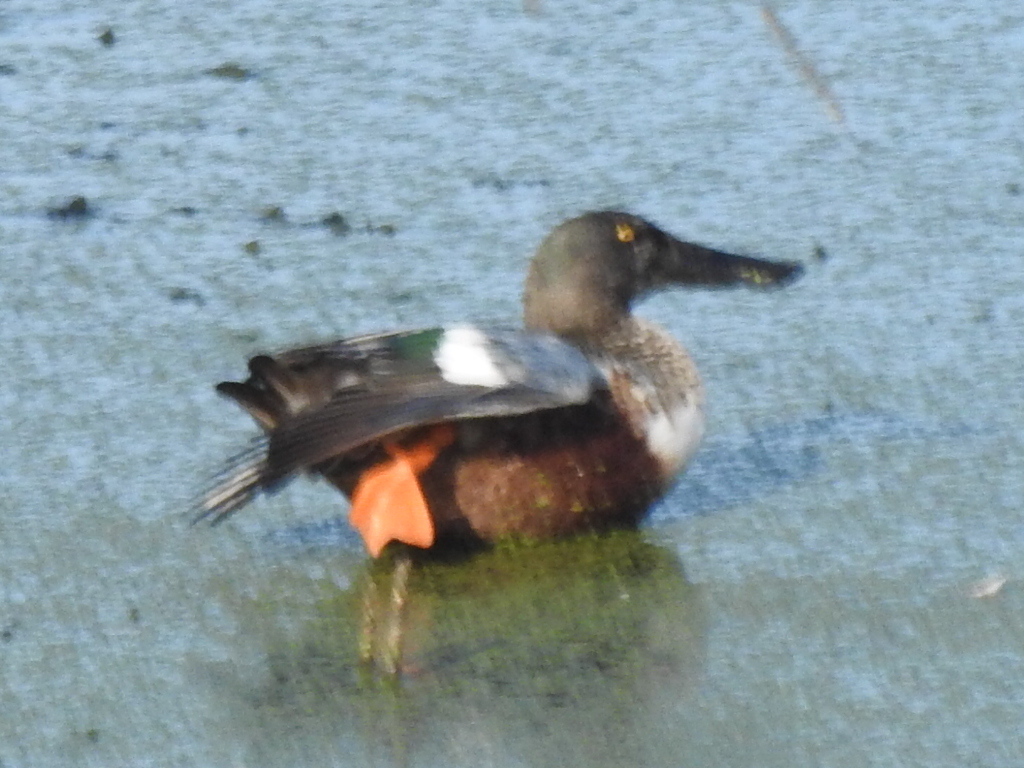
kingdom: Animalia
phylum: Chordata
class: Aves
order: Anseriformes
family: Anatidae
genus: Spatula
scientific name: Spatula clypeata
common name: Northern shoveler
